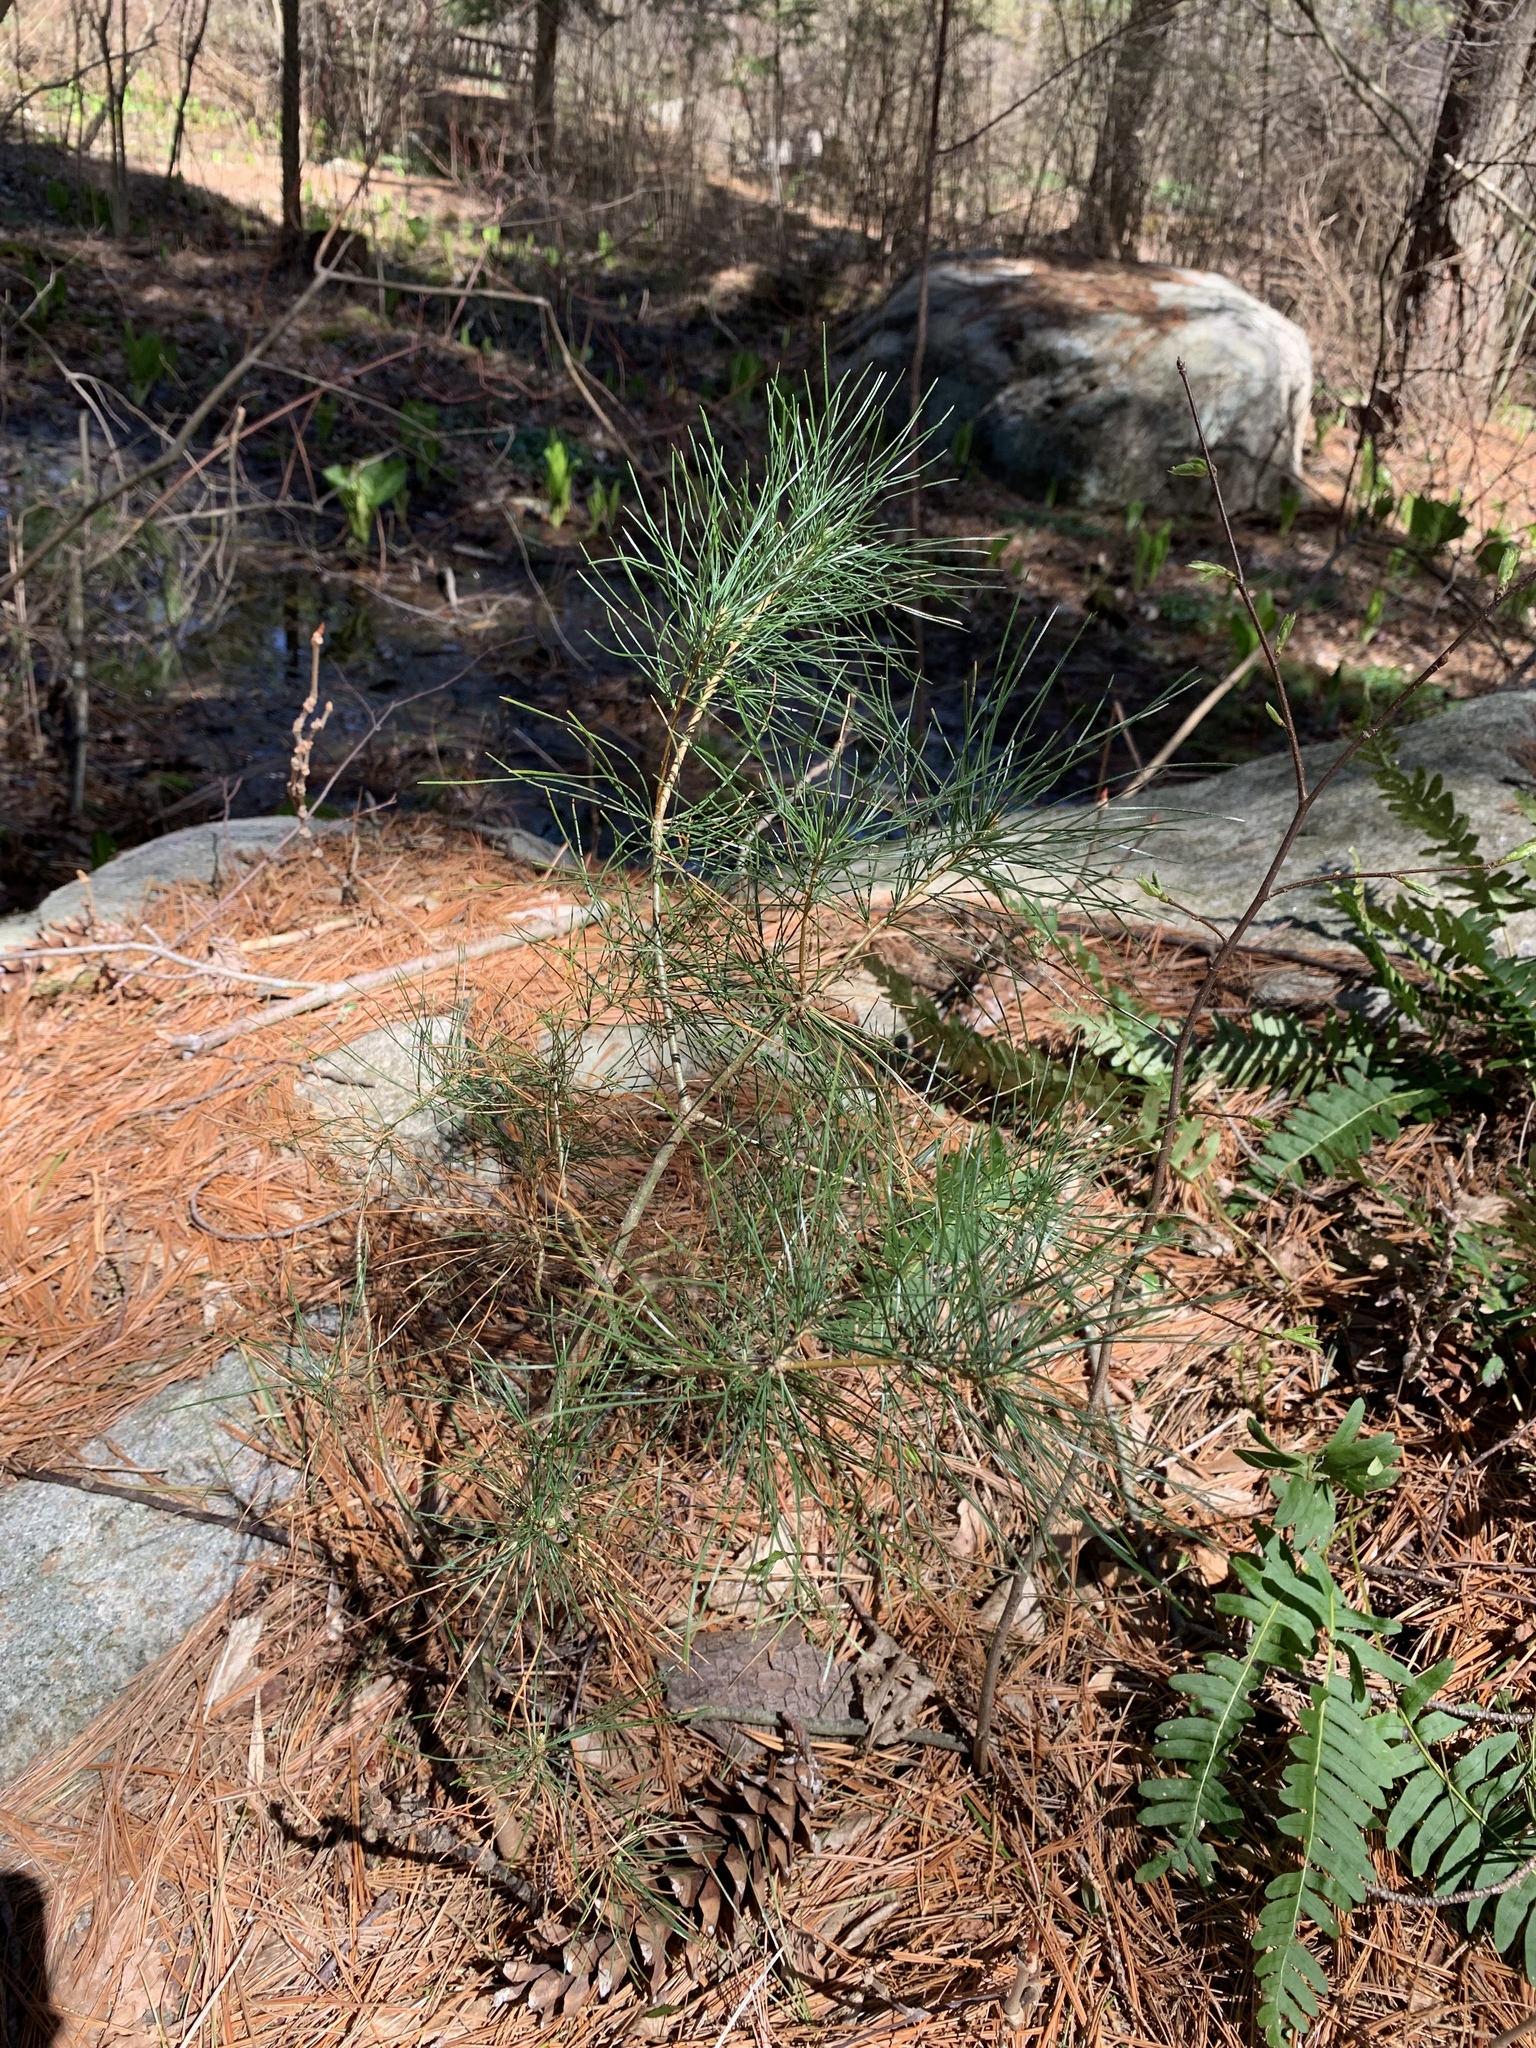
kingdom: Plantae
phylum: Tracheophyta
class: Pinopsida
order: Pinales
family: Pinaceae
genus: Pinus
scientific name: Pinus strobus
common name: Weymouth pine
